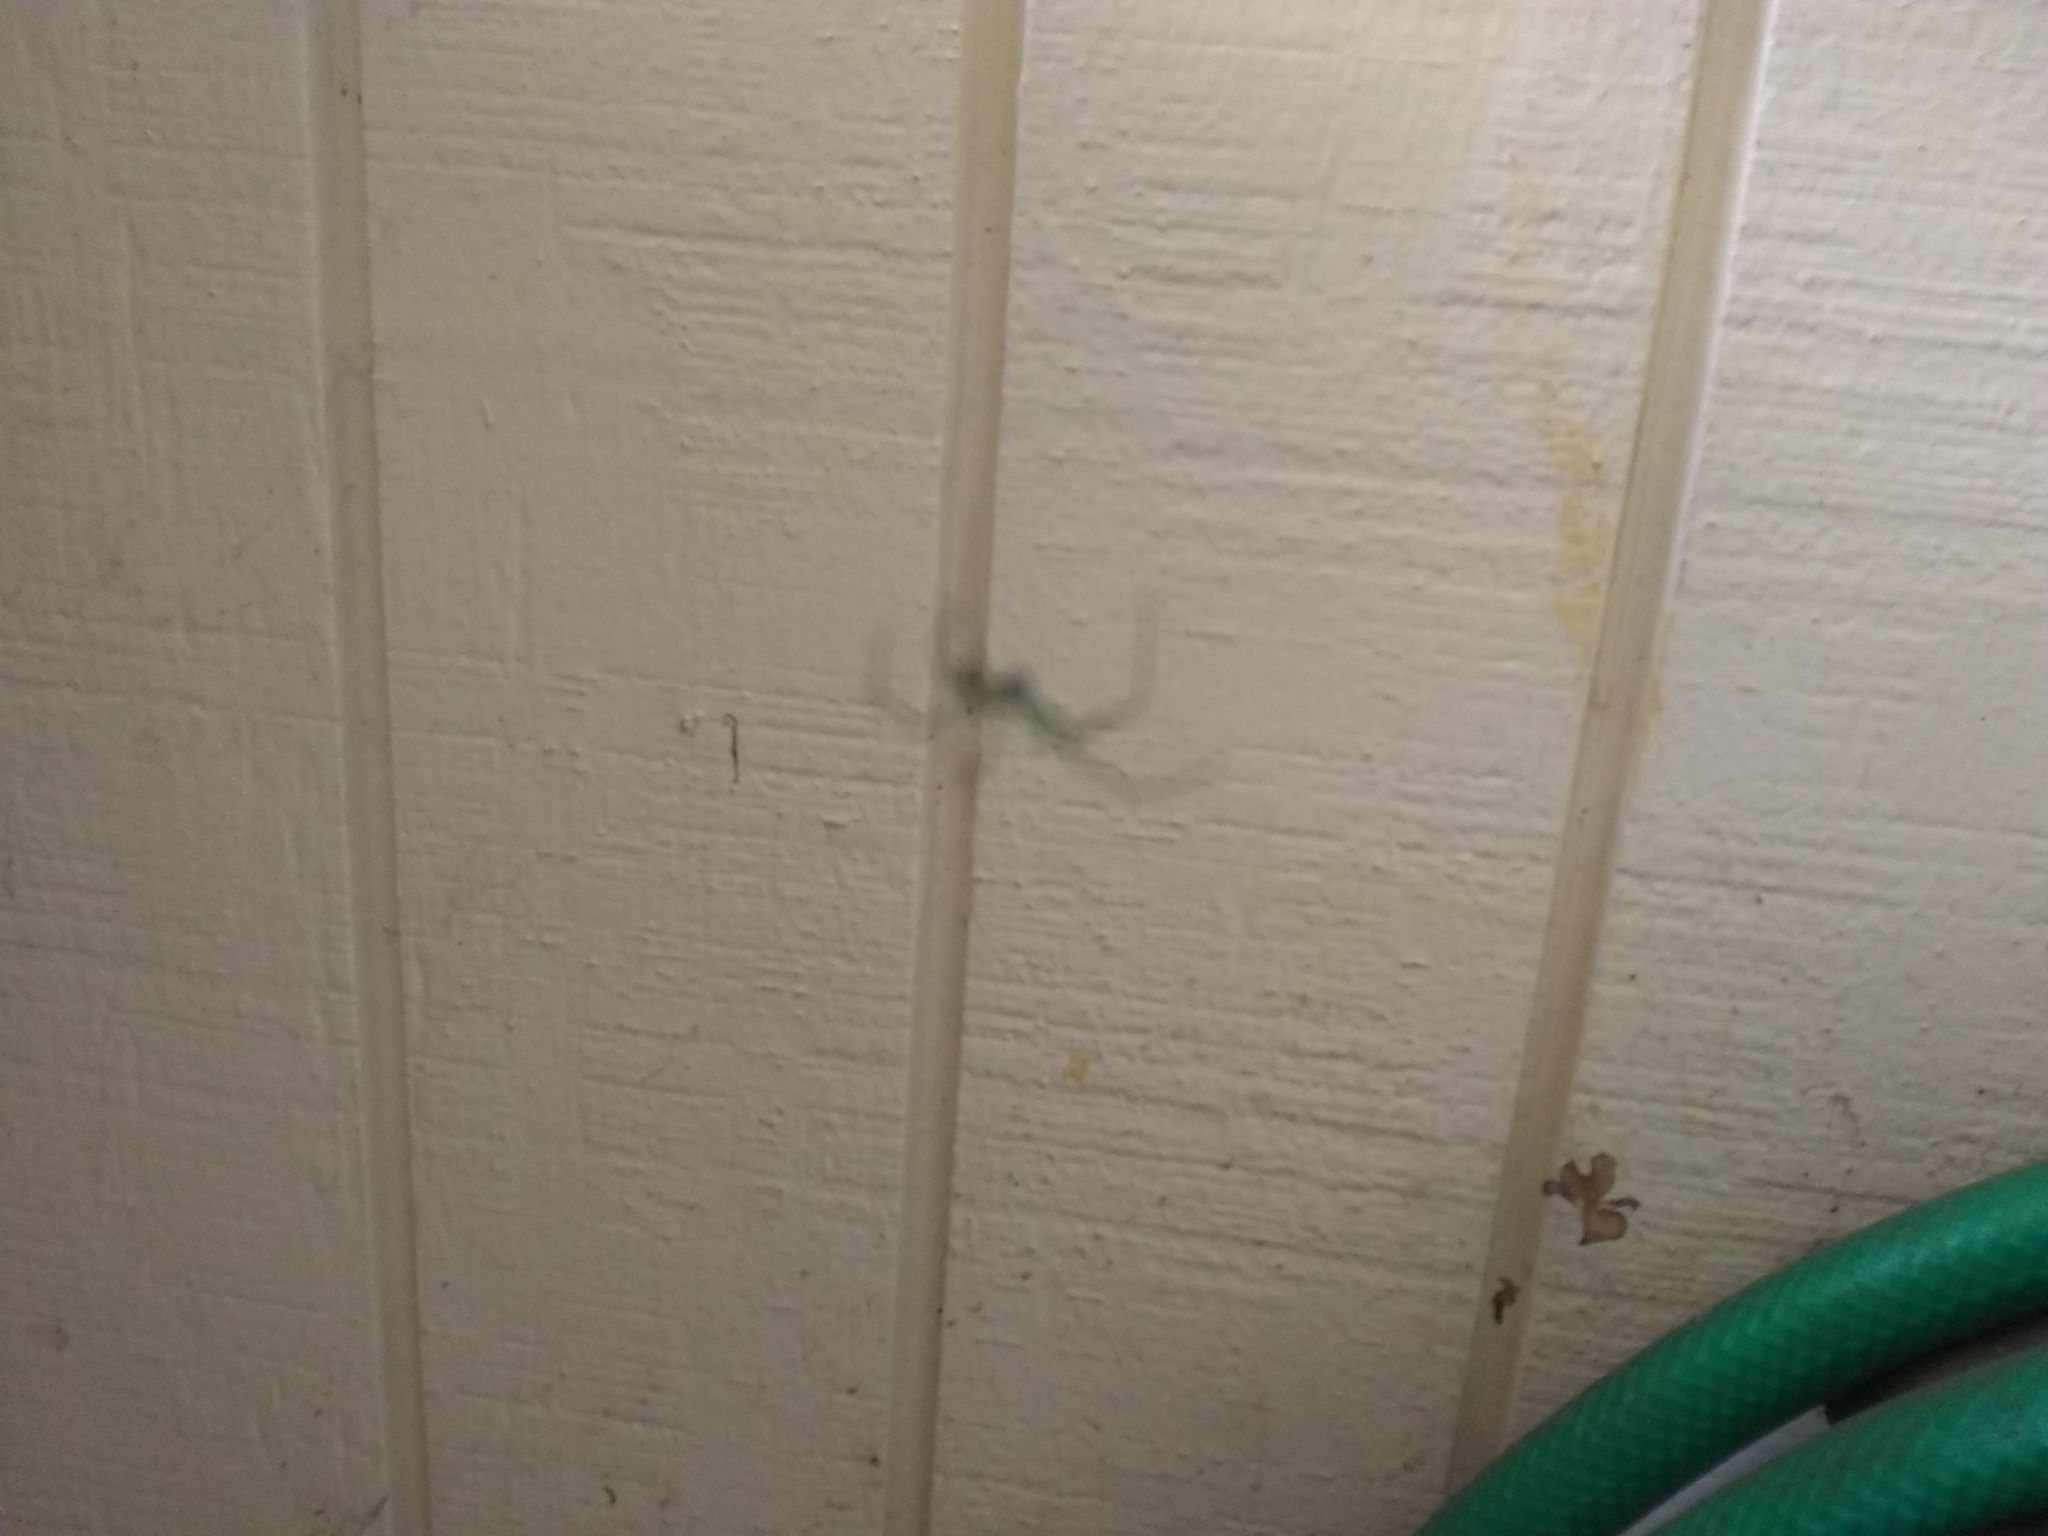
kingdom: Animalia
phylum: Arthropoda
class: Arachnida
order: Araneae
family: Tetragnathidae
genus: Leucauge
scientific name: Leucauge
